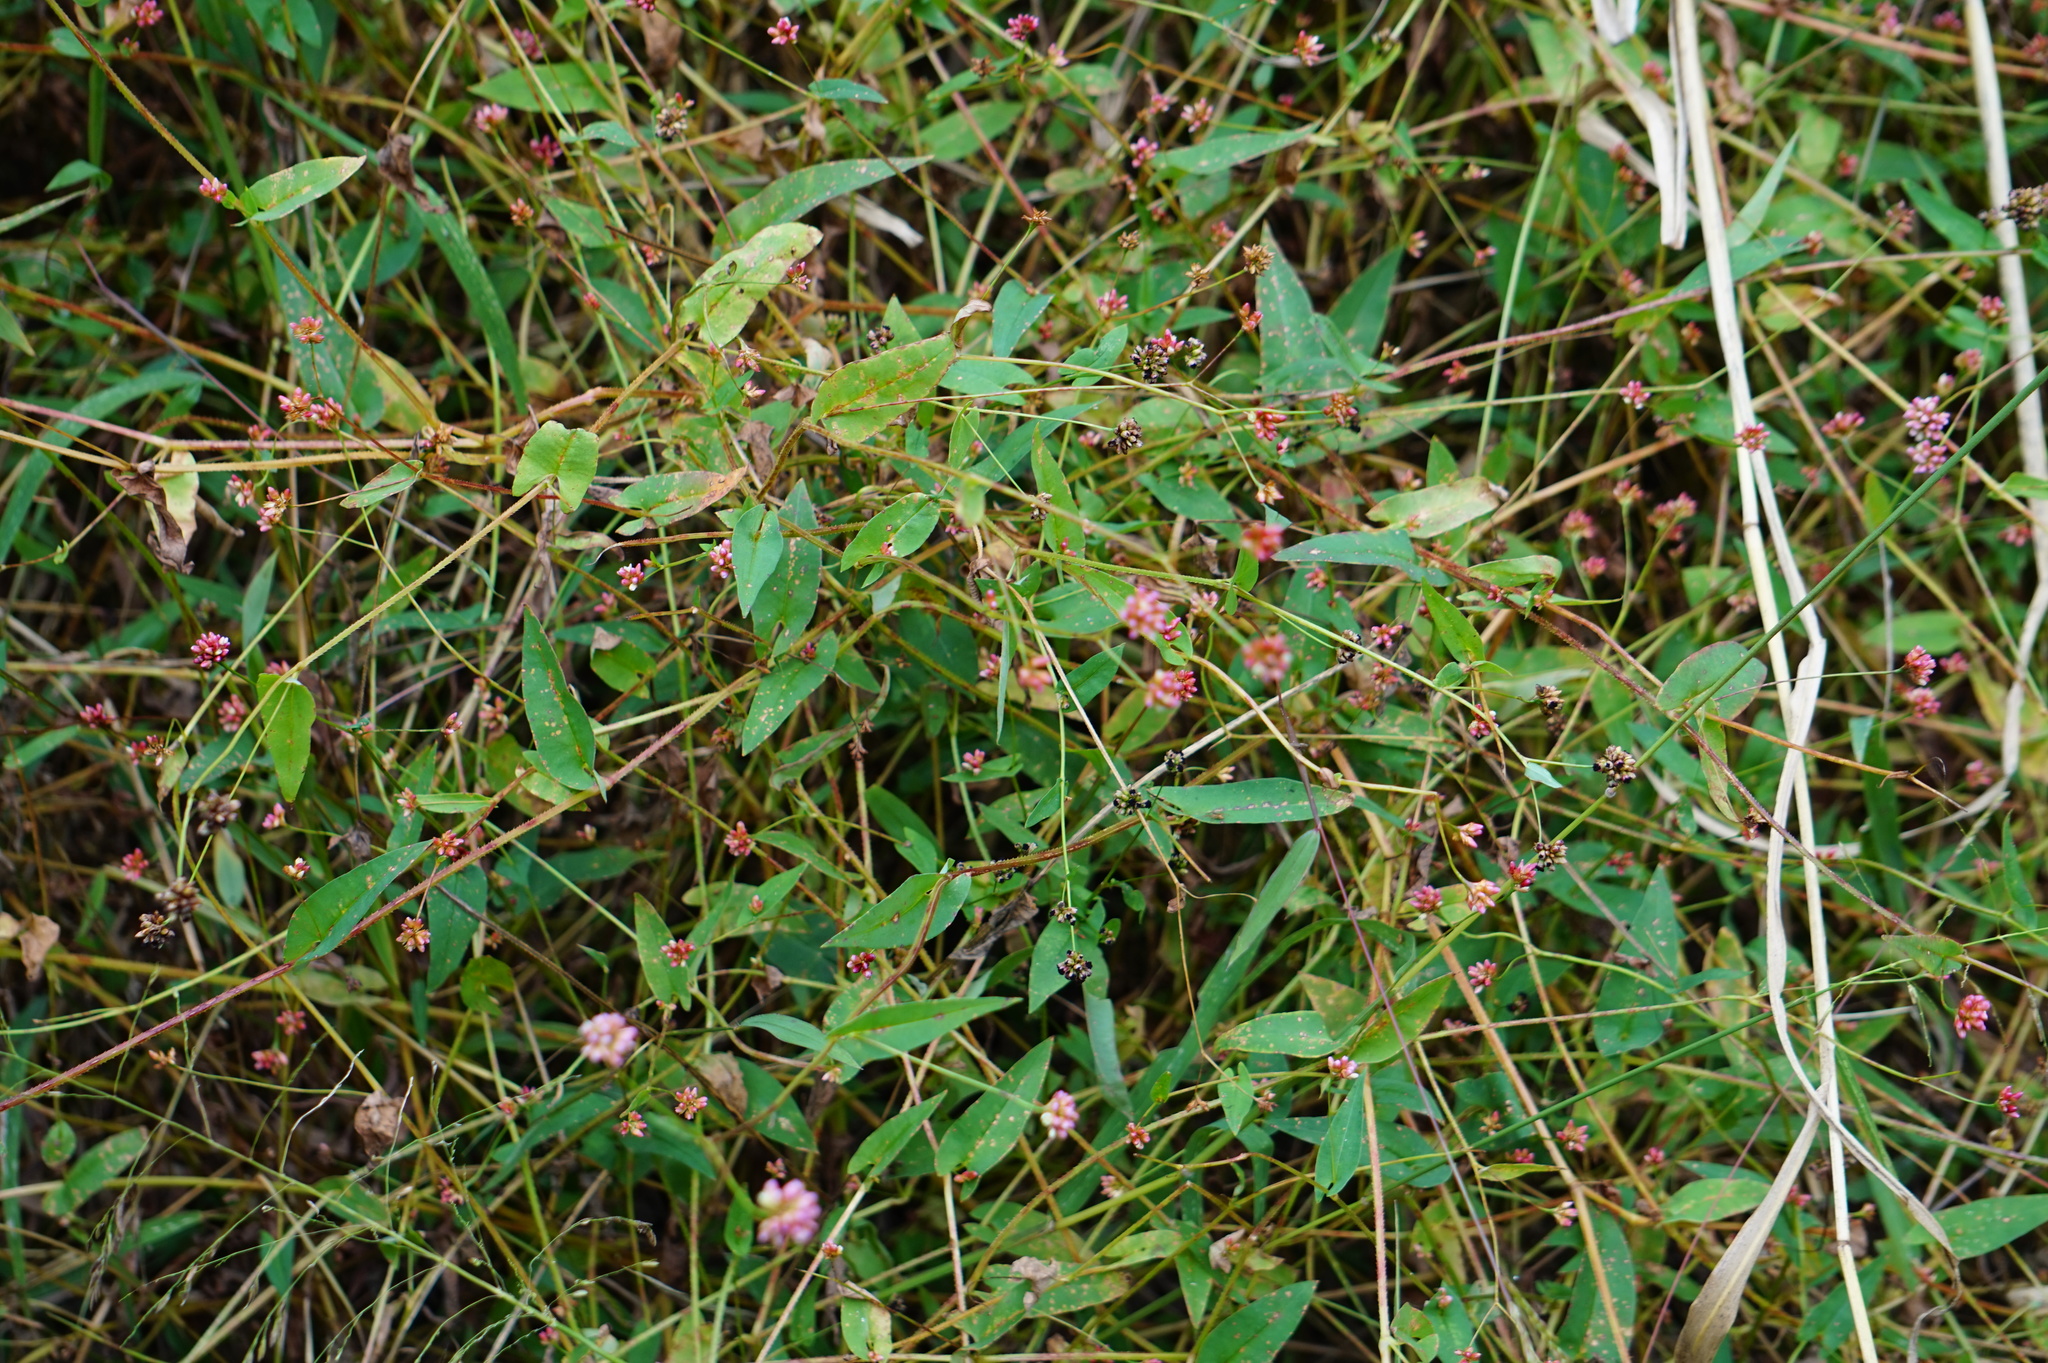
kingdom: Plantae
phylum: Tracheophyta
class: Magnoliopsida
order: Caryophyllales
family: Polygonaceae
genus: Persicaria
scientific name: Persicaria sagittata
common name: American tearthumb
